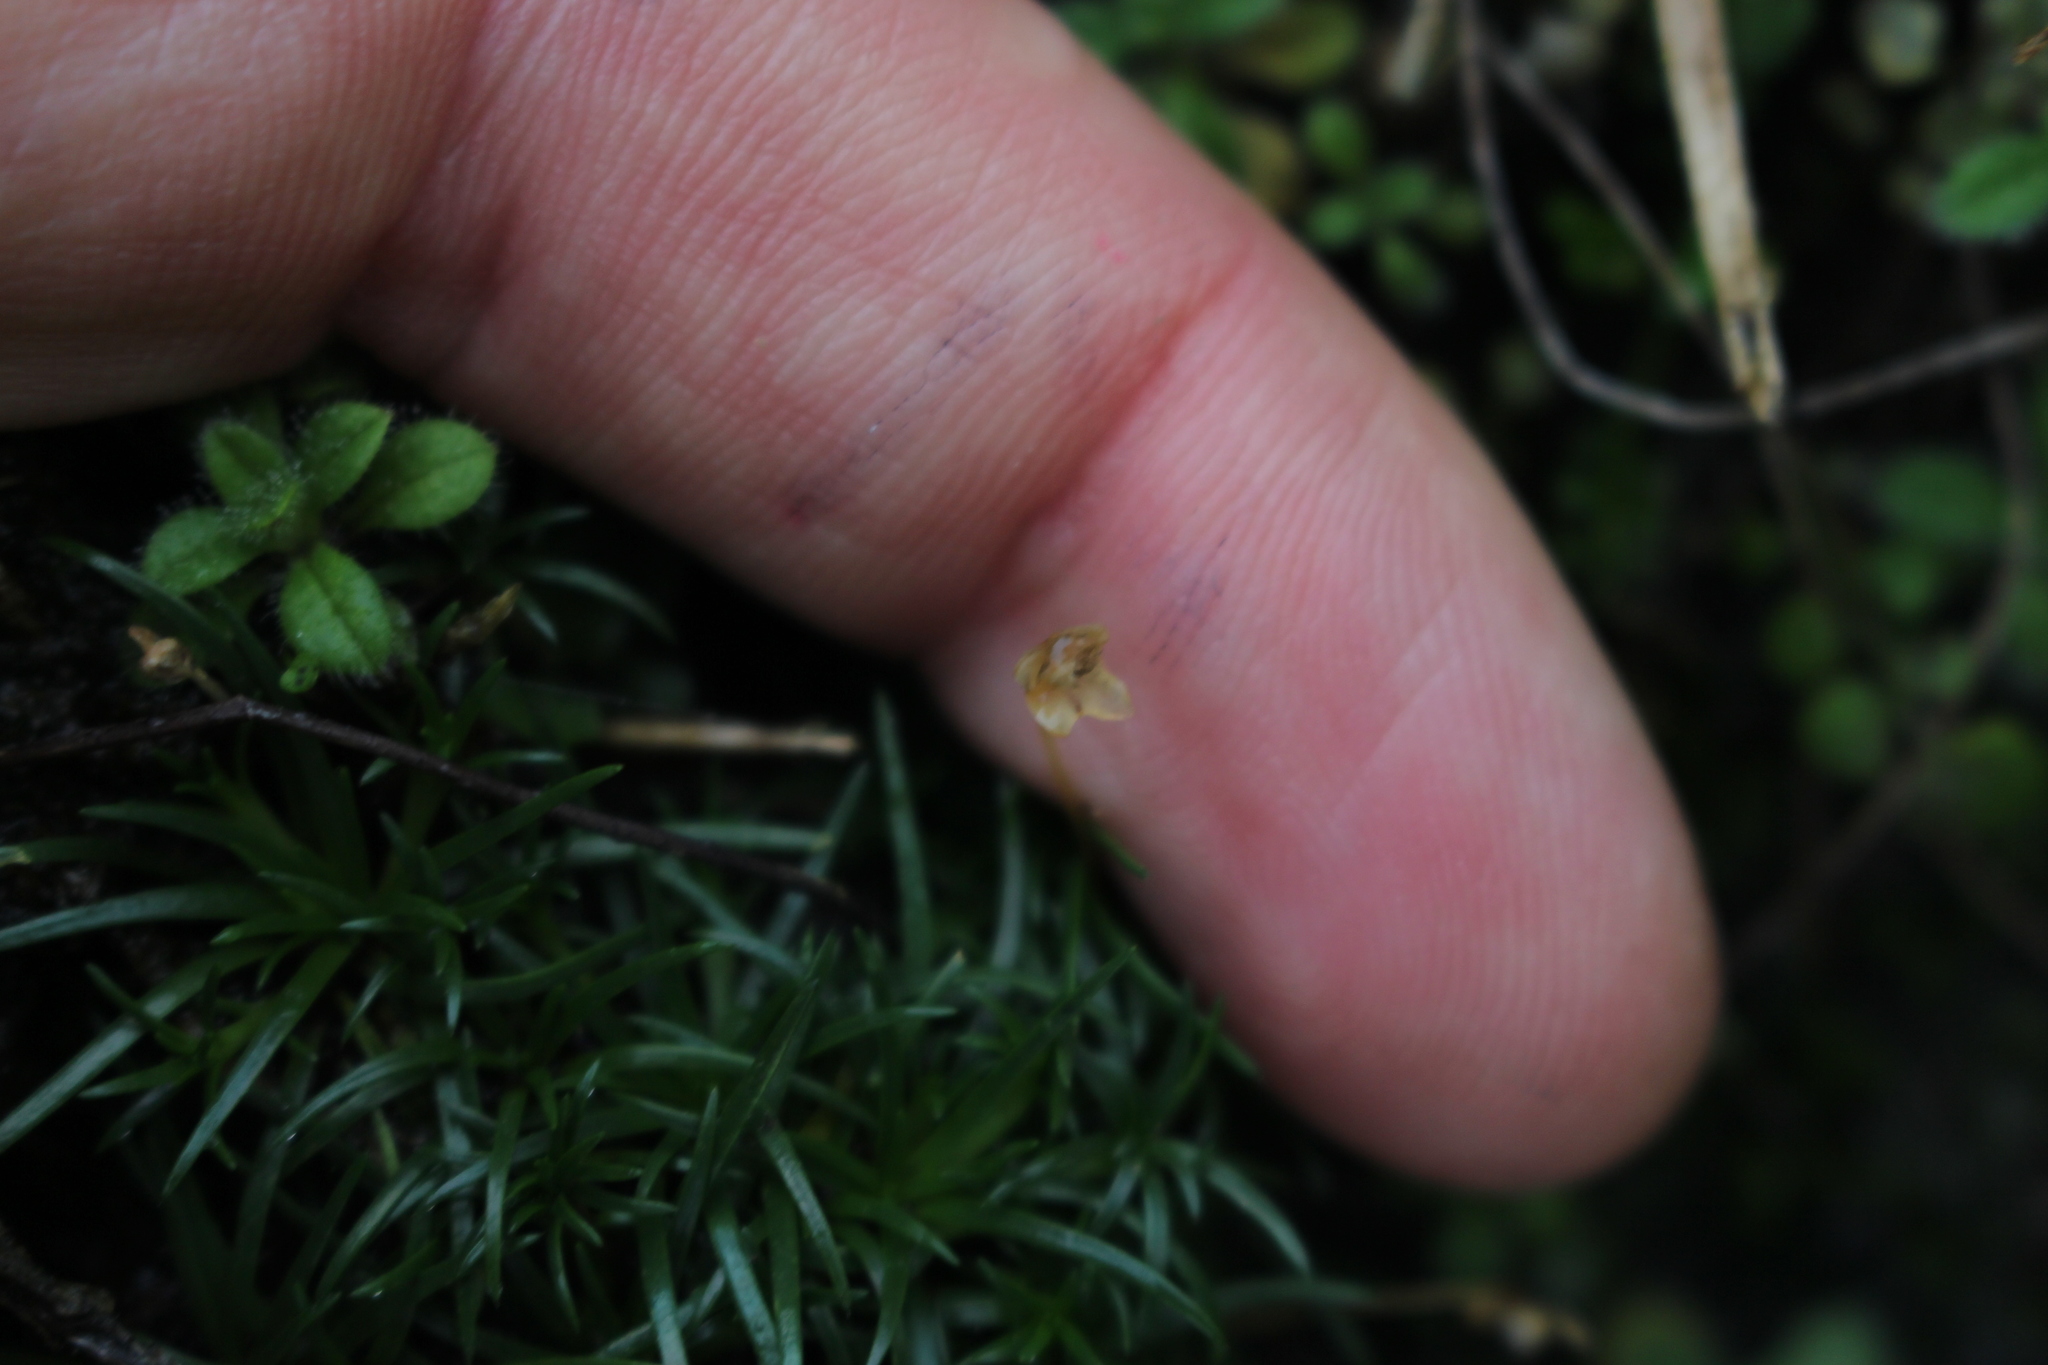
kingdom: Plantae
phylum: Tracheophyta
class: Magnoliopsida
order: Caryophyllales
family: Caryophyllaceae
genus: Sagina
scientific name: Sagina procumbens
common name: Procumbent pearlwort
